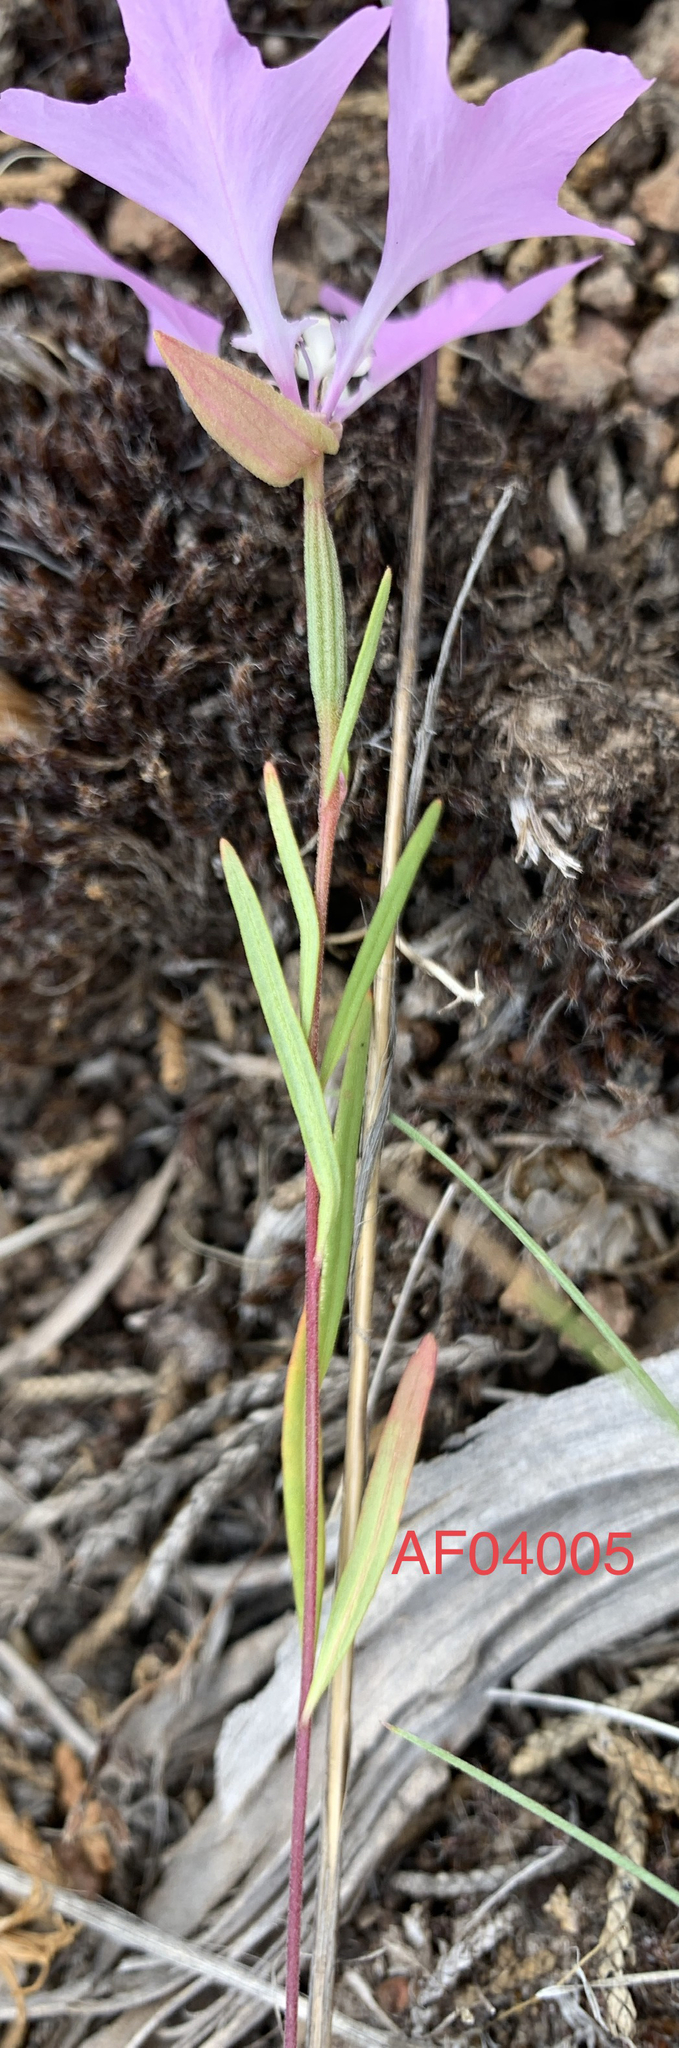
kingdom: Plantae
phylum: Tracheophyta
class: Magnoliopsida
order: Myrtales
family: Onagraceae
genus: Clarkia
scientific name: Clarkia pulchella
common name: Deer horn
